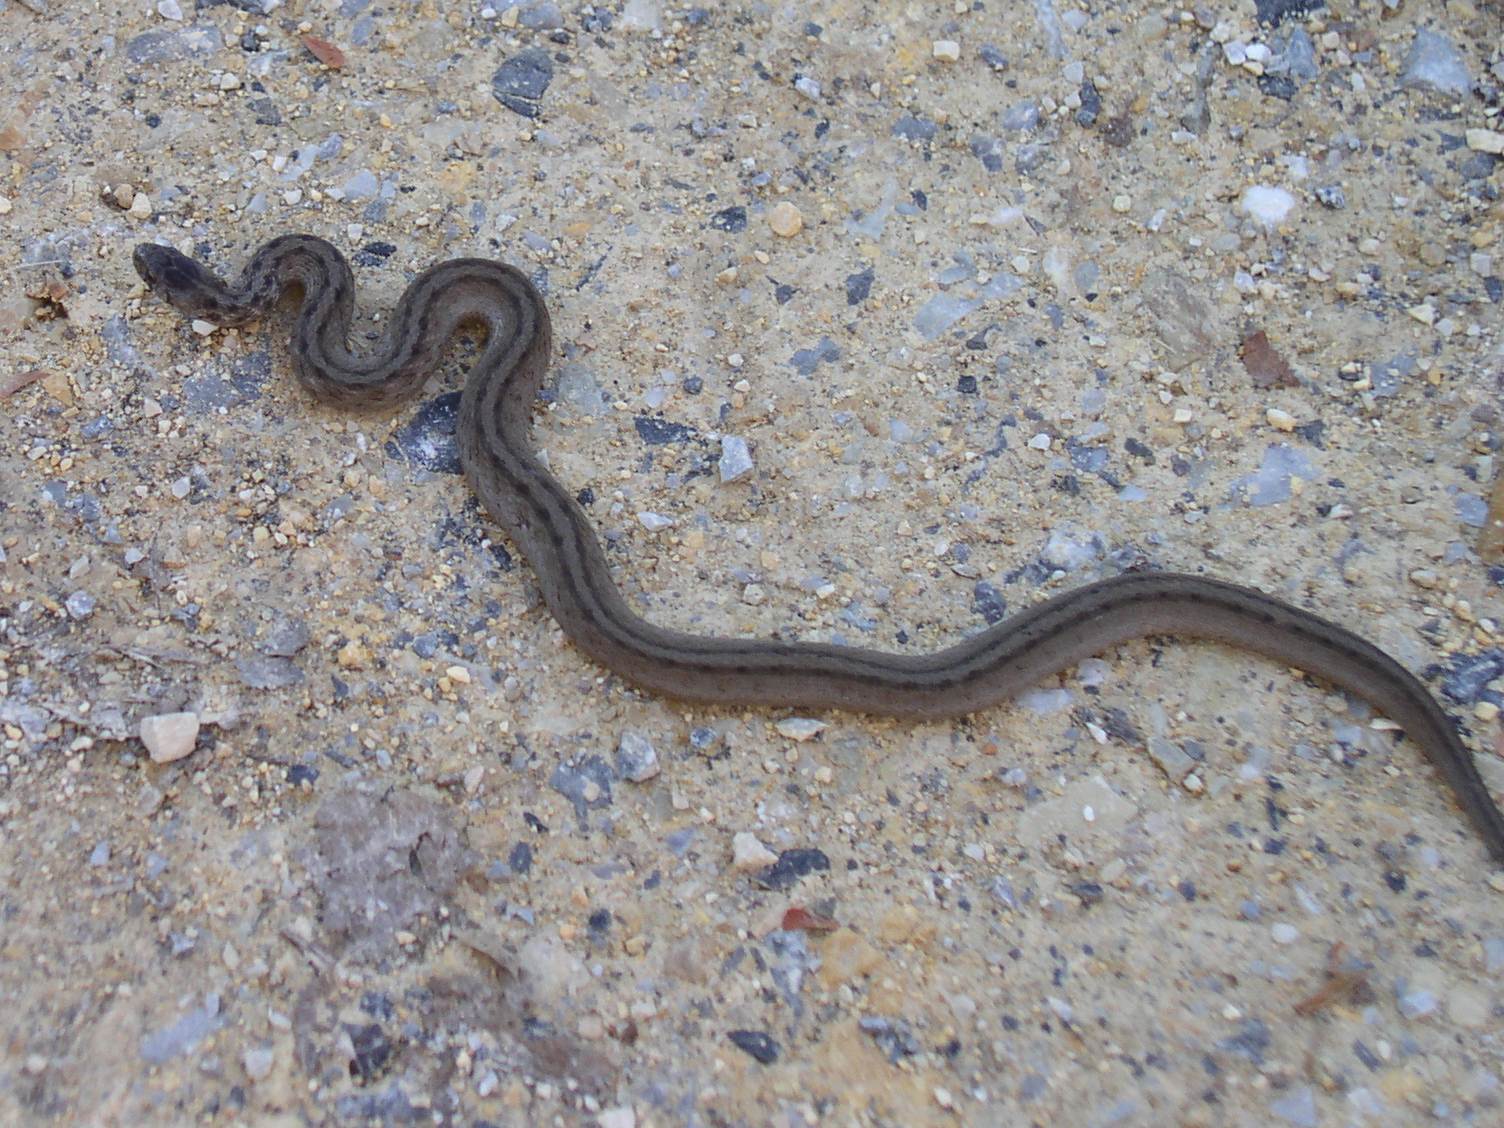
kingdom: Animalia
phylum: Chordata
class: Squamata
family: Colubridae
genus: Storeria
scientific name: Storeria dekayi
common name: (dekay’s) brown snake
